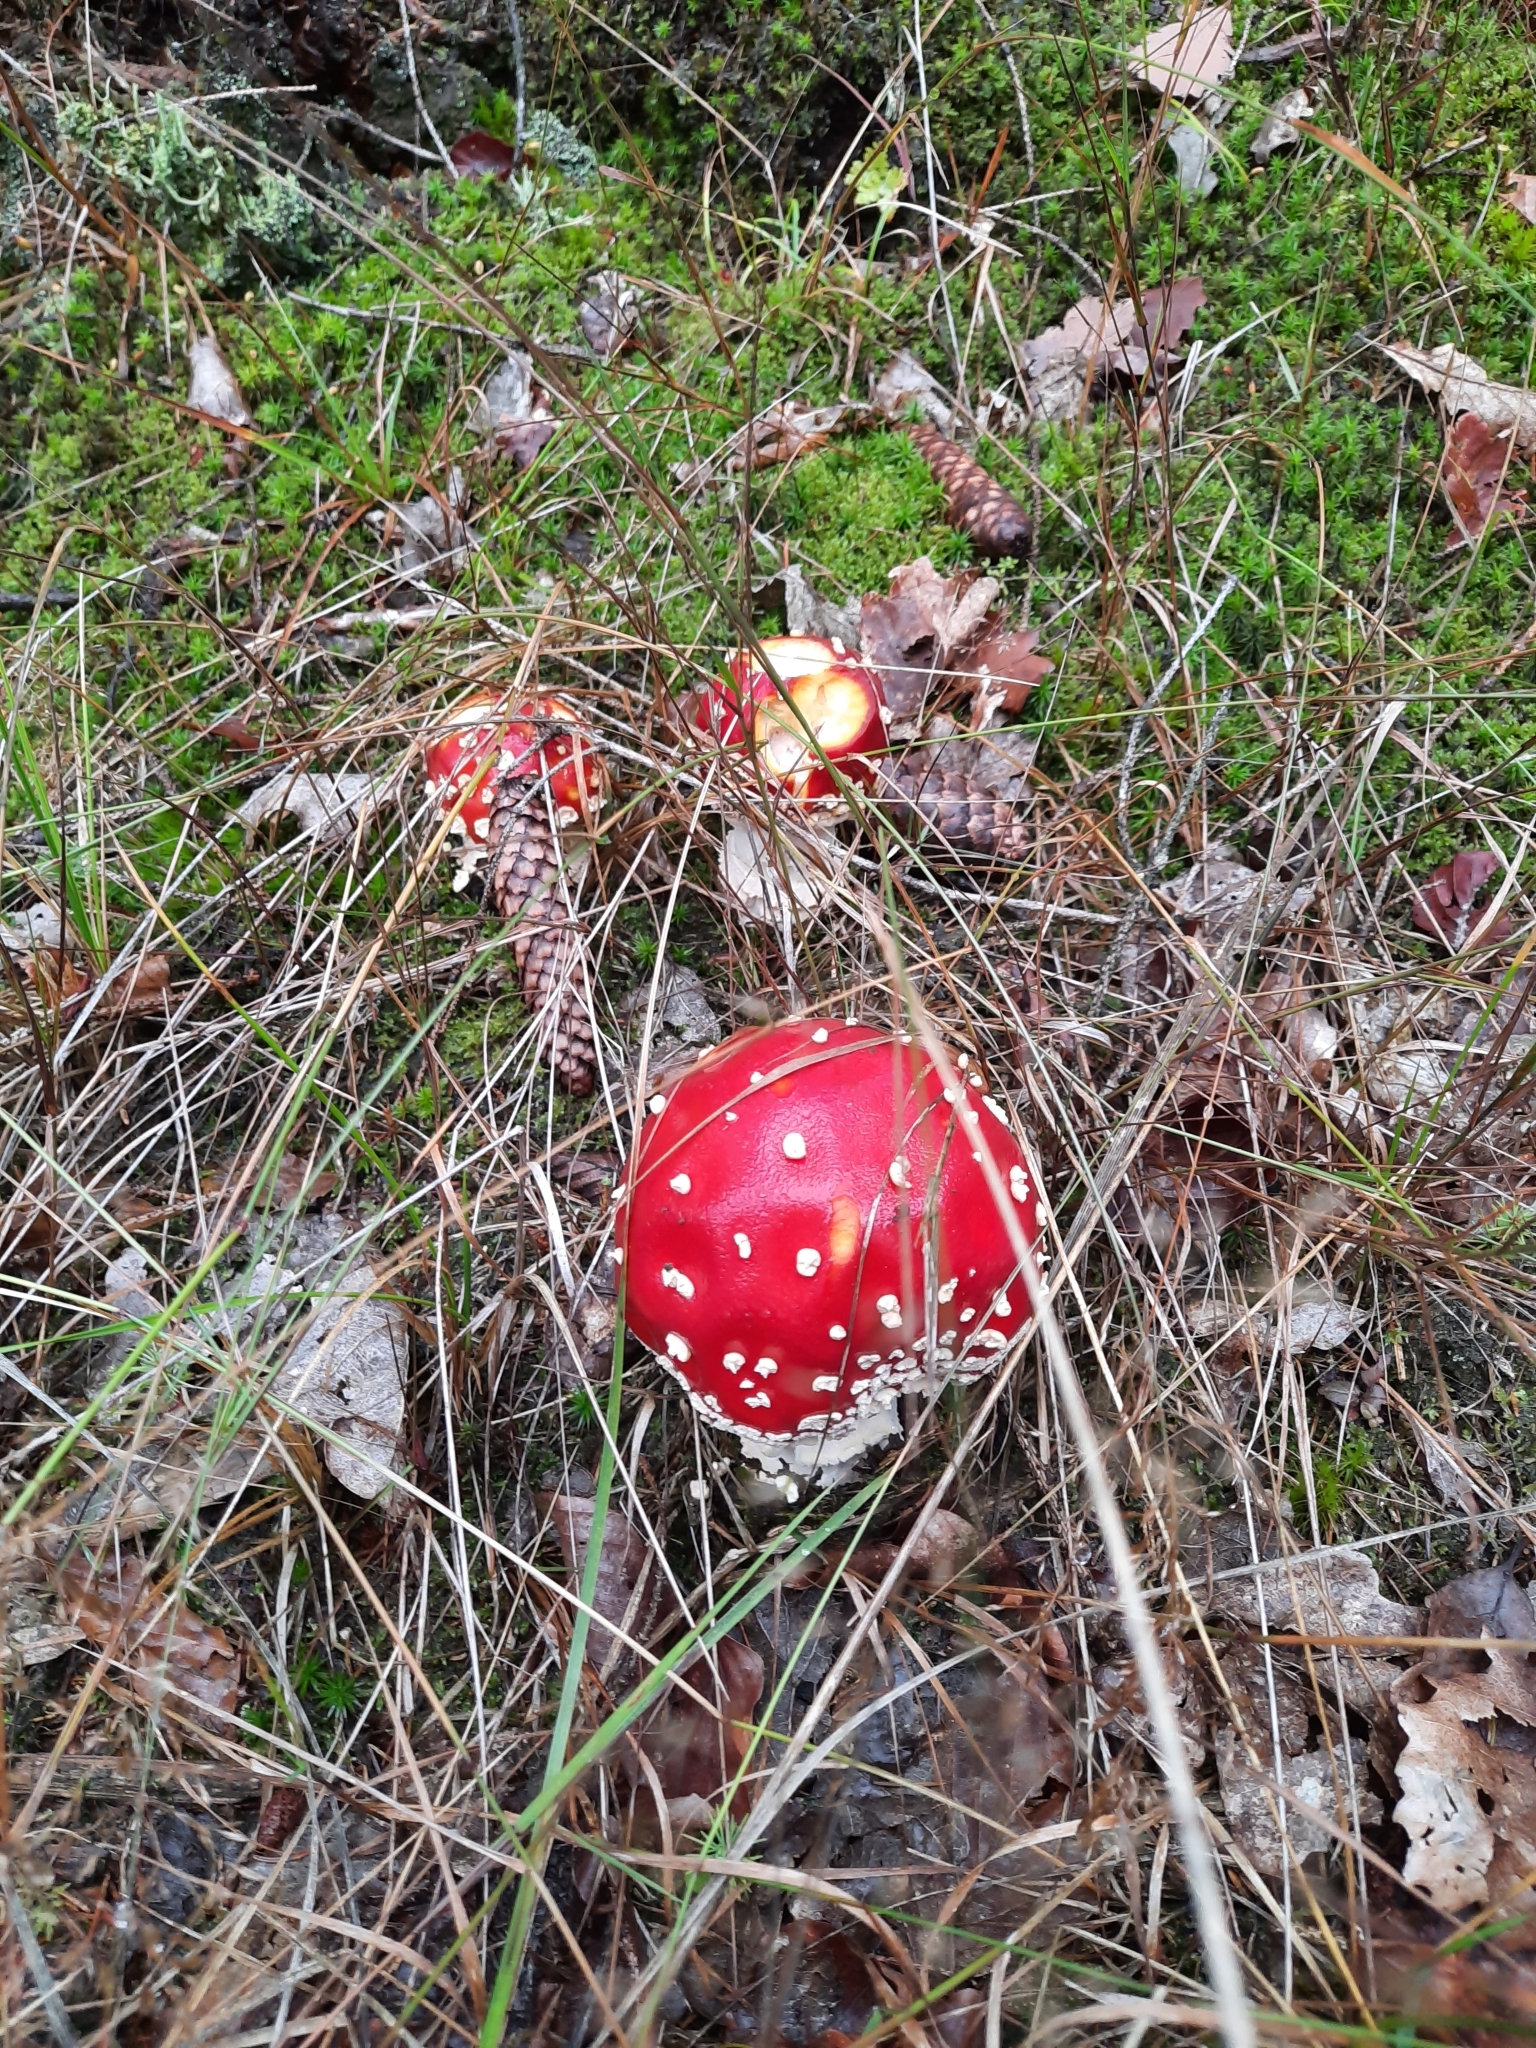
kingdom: Fungi
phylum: Basidiomycota
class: Agaricomycetes
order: Agaricales
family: Amanitaceae
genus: Amanita
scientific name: Amanita muscaria
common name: Fly agaric
